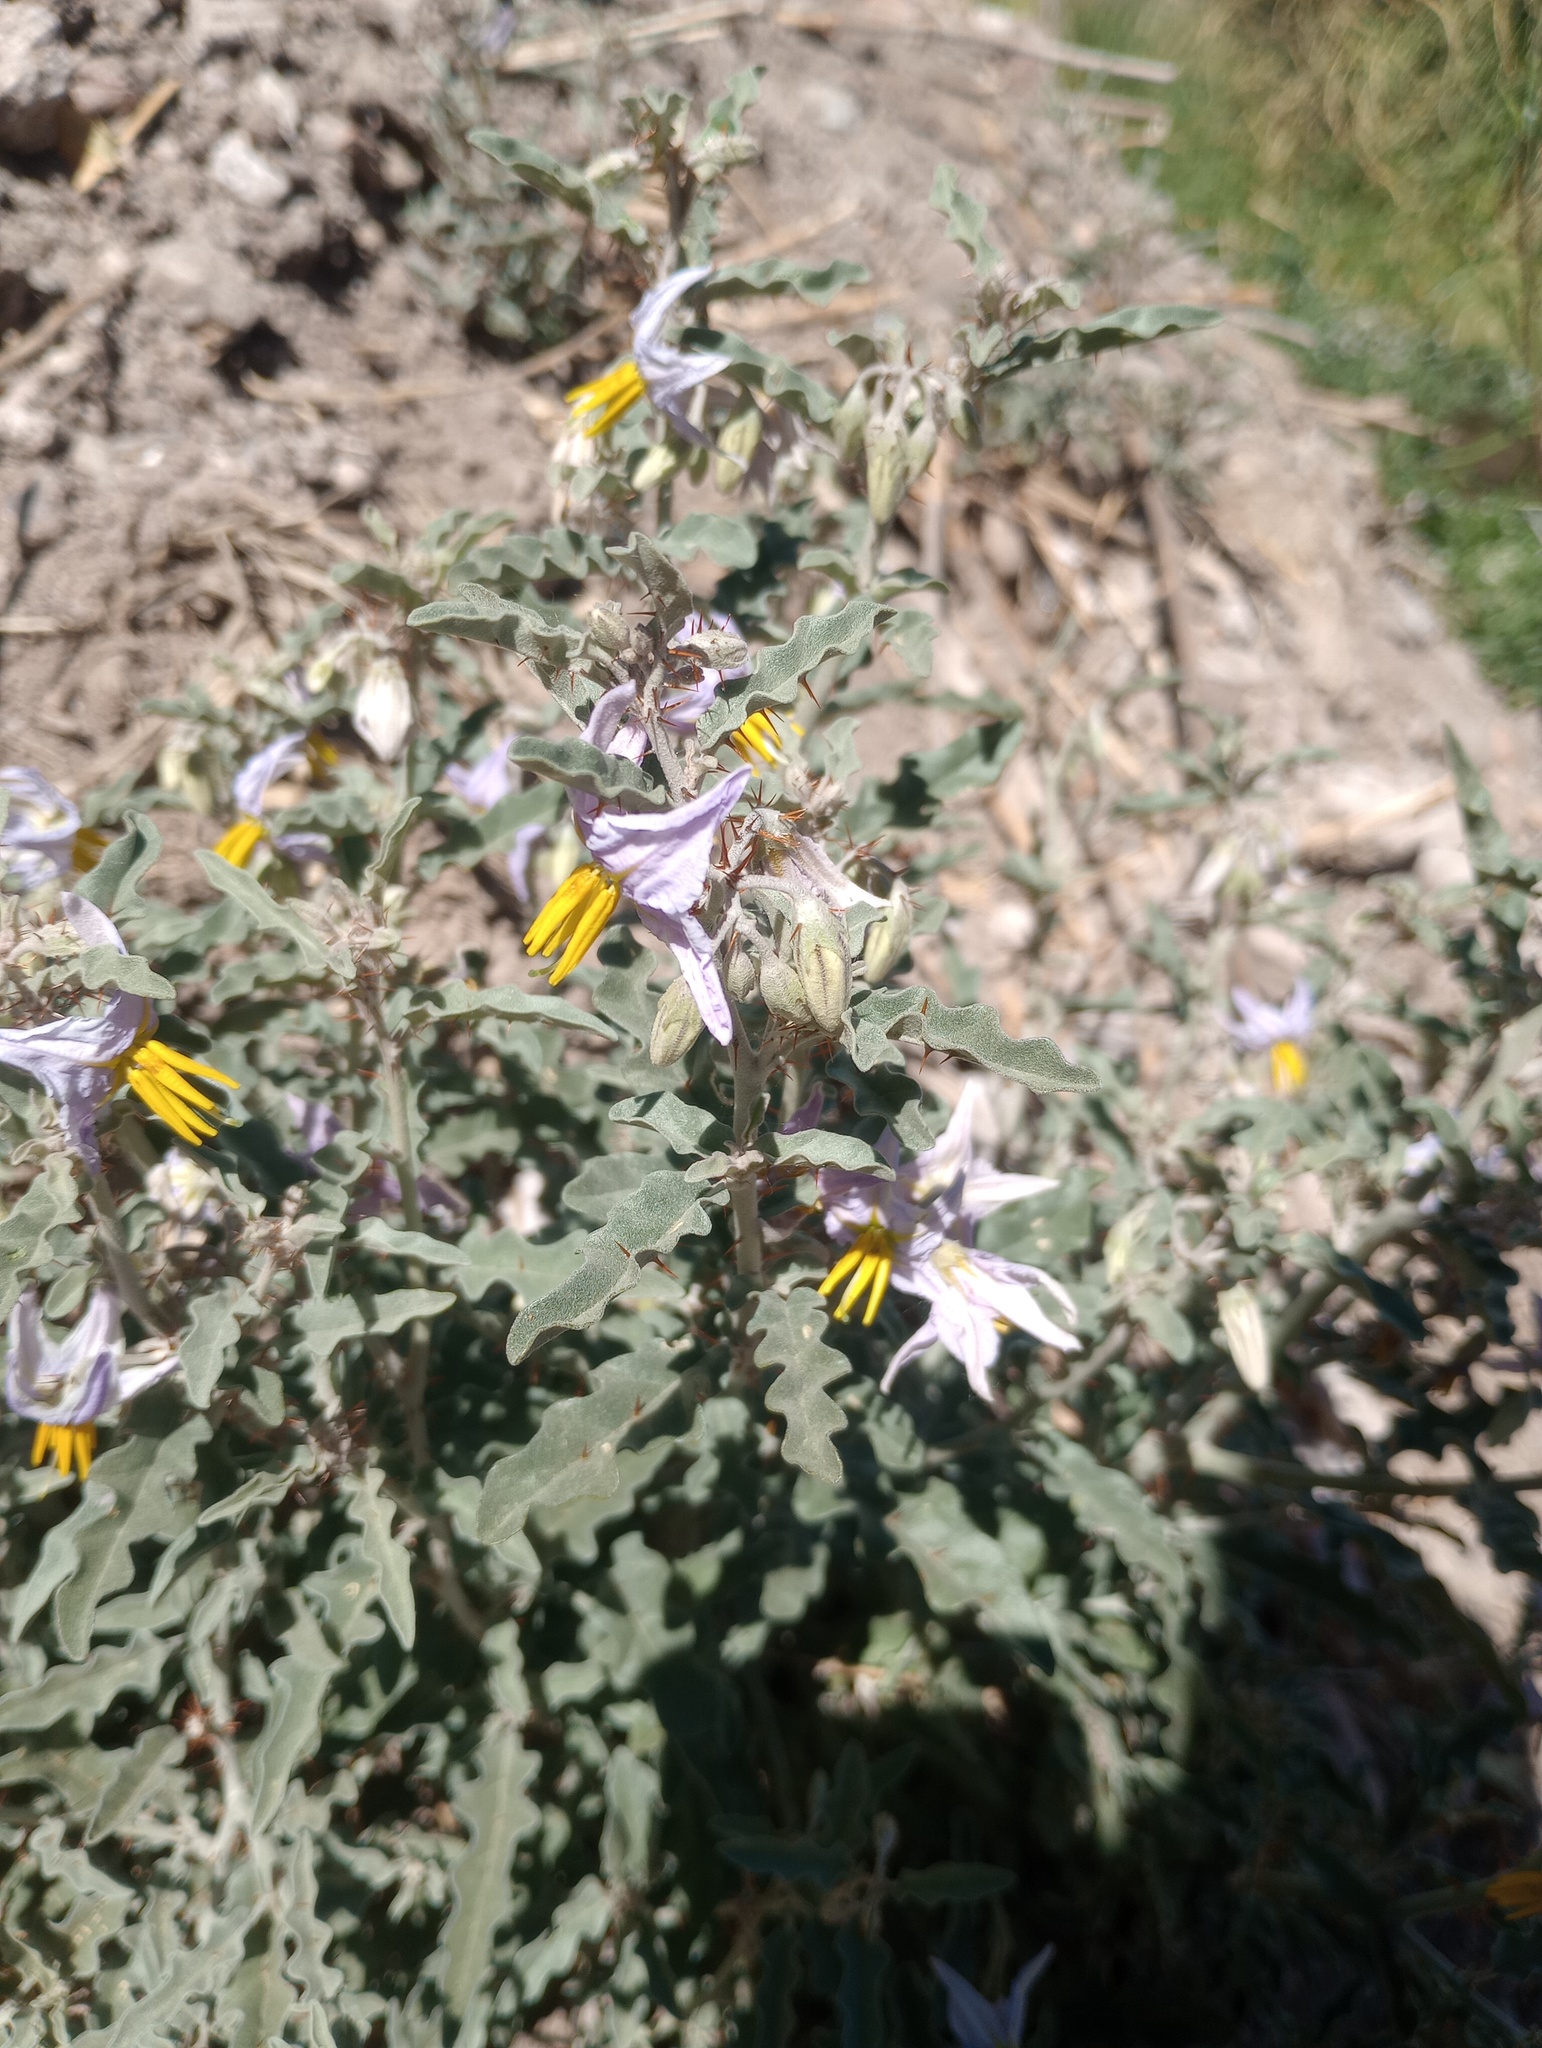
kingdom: Plantae
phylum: Tracheophyta
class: Magnoliopsida
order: Solanales
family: Solanaceae
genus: Solanum
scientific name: Solanum elaeagnifolium
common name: Silverleaf nightshade
